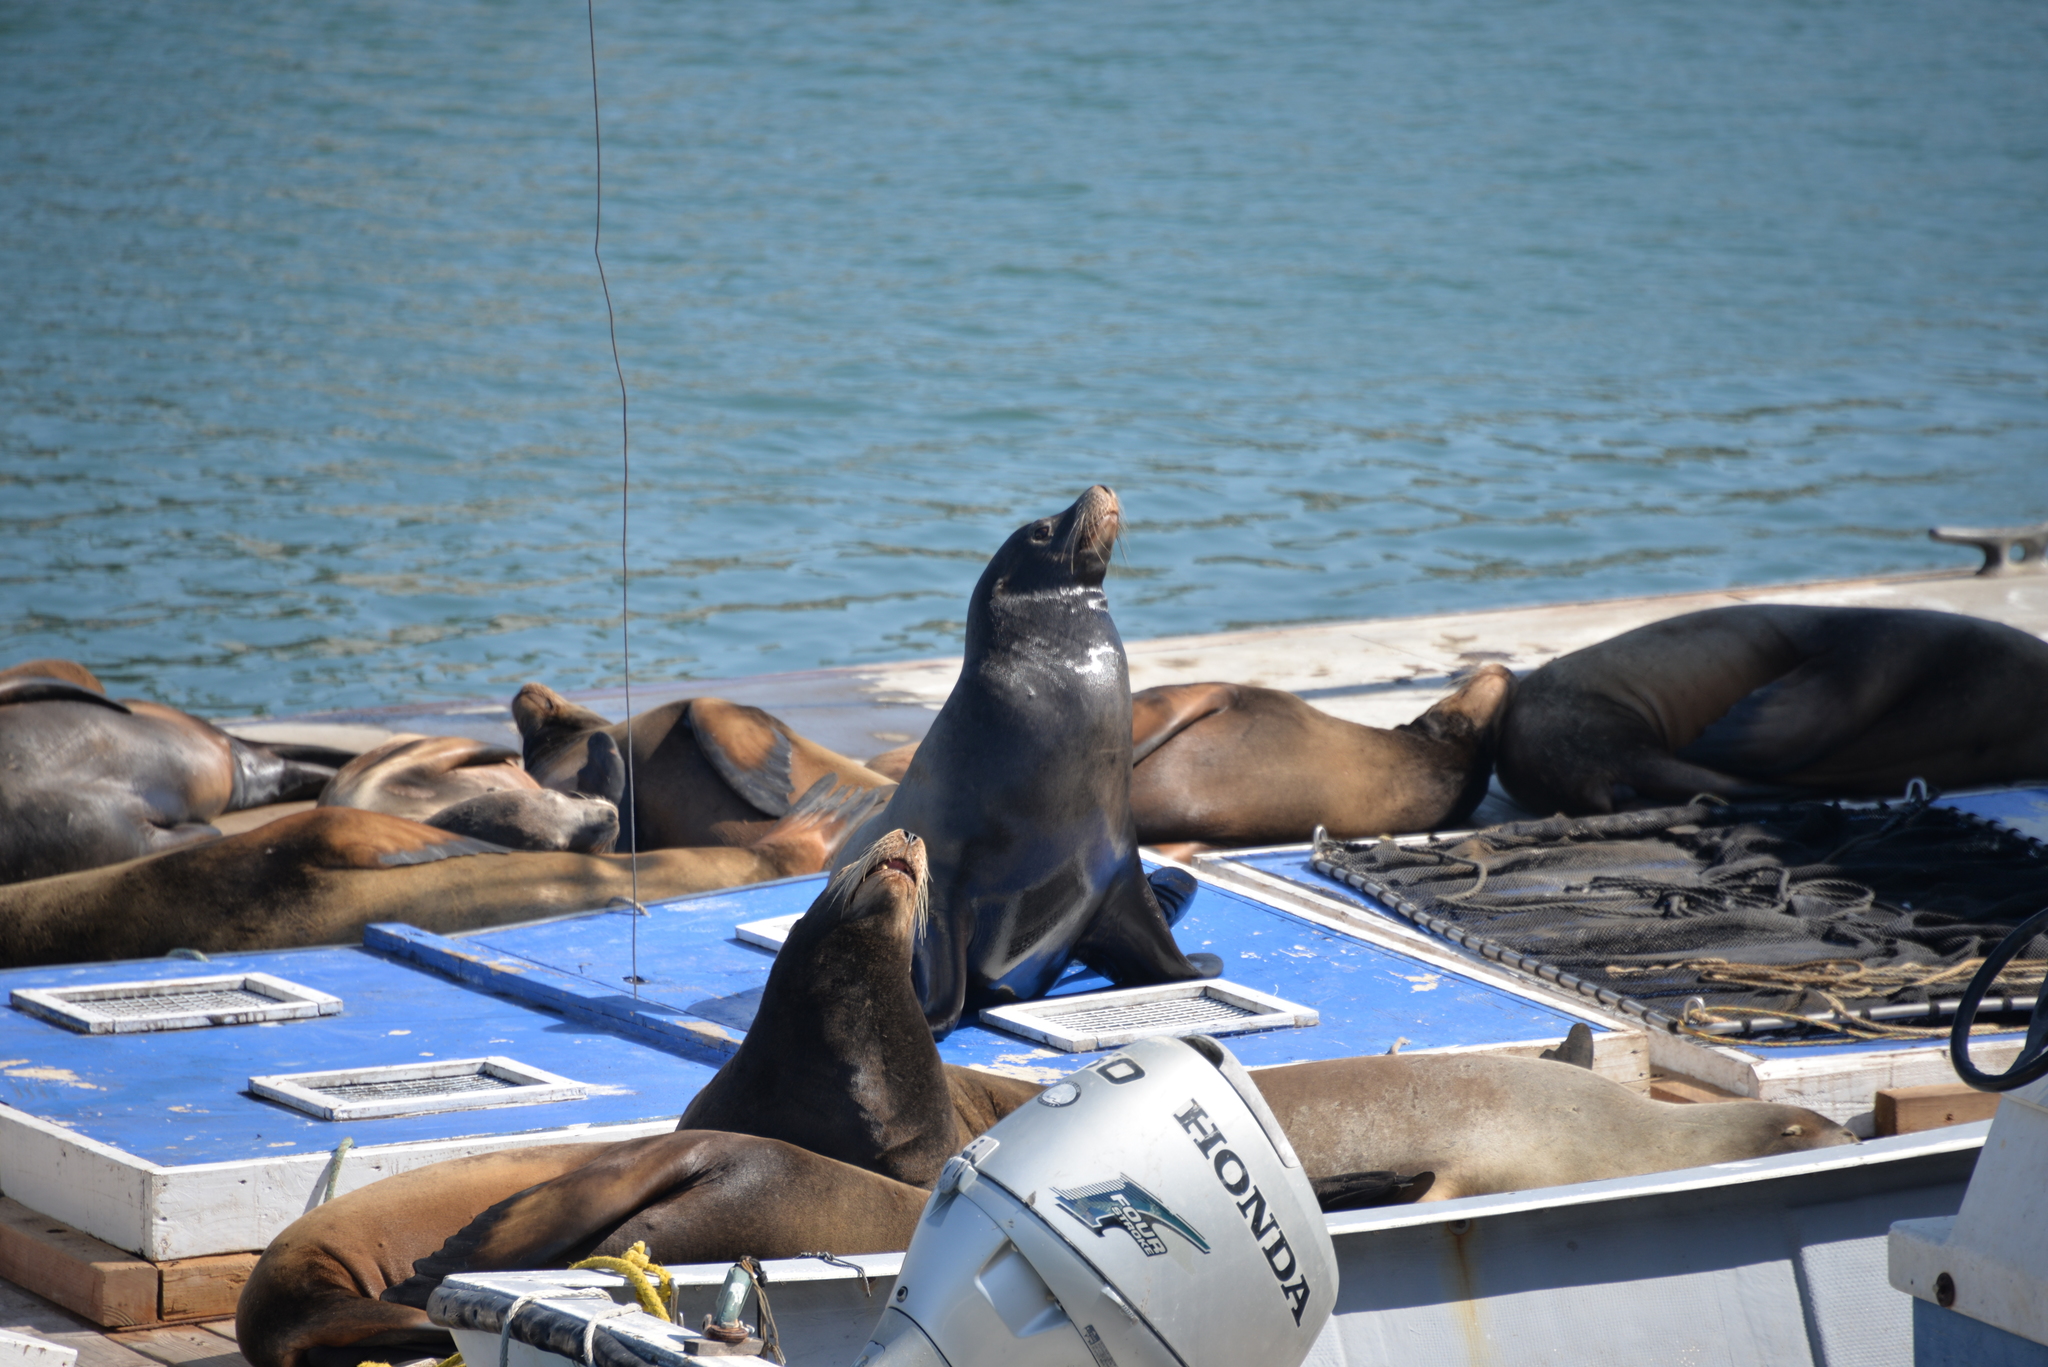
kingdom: Animalia
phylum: Chordata
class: Mammalia
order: Carnivora
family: Otariidae
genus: Zalophus
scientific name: Zalophus californianus
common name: California sea lion
